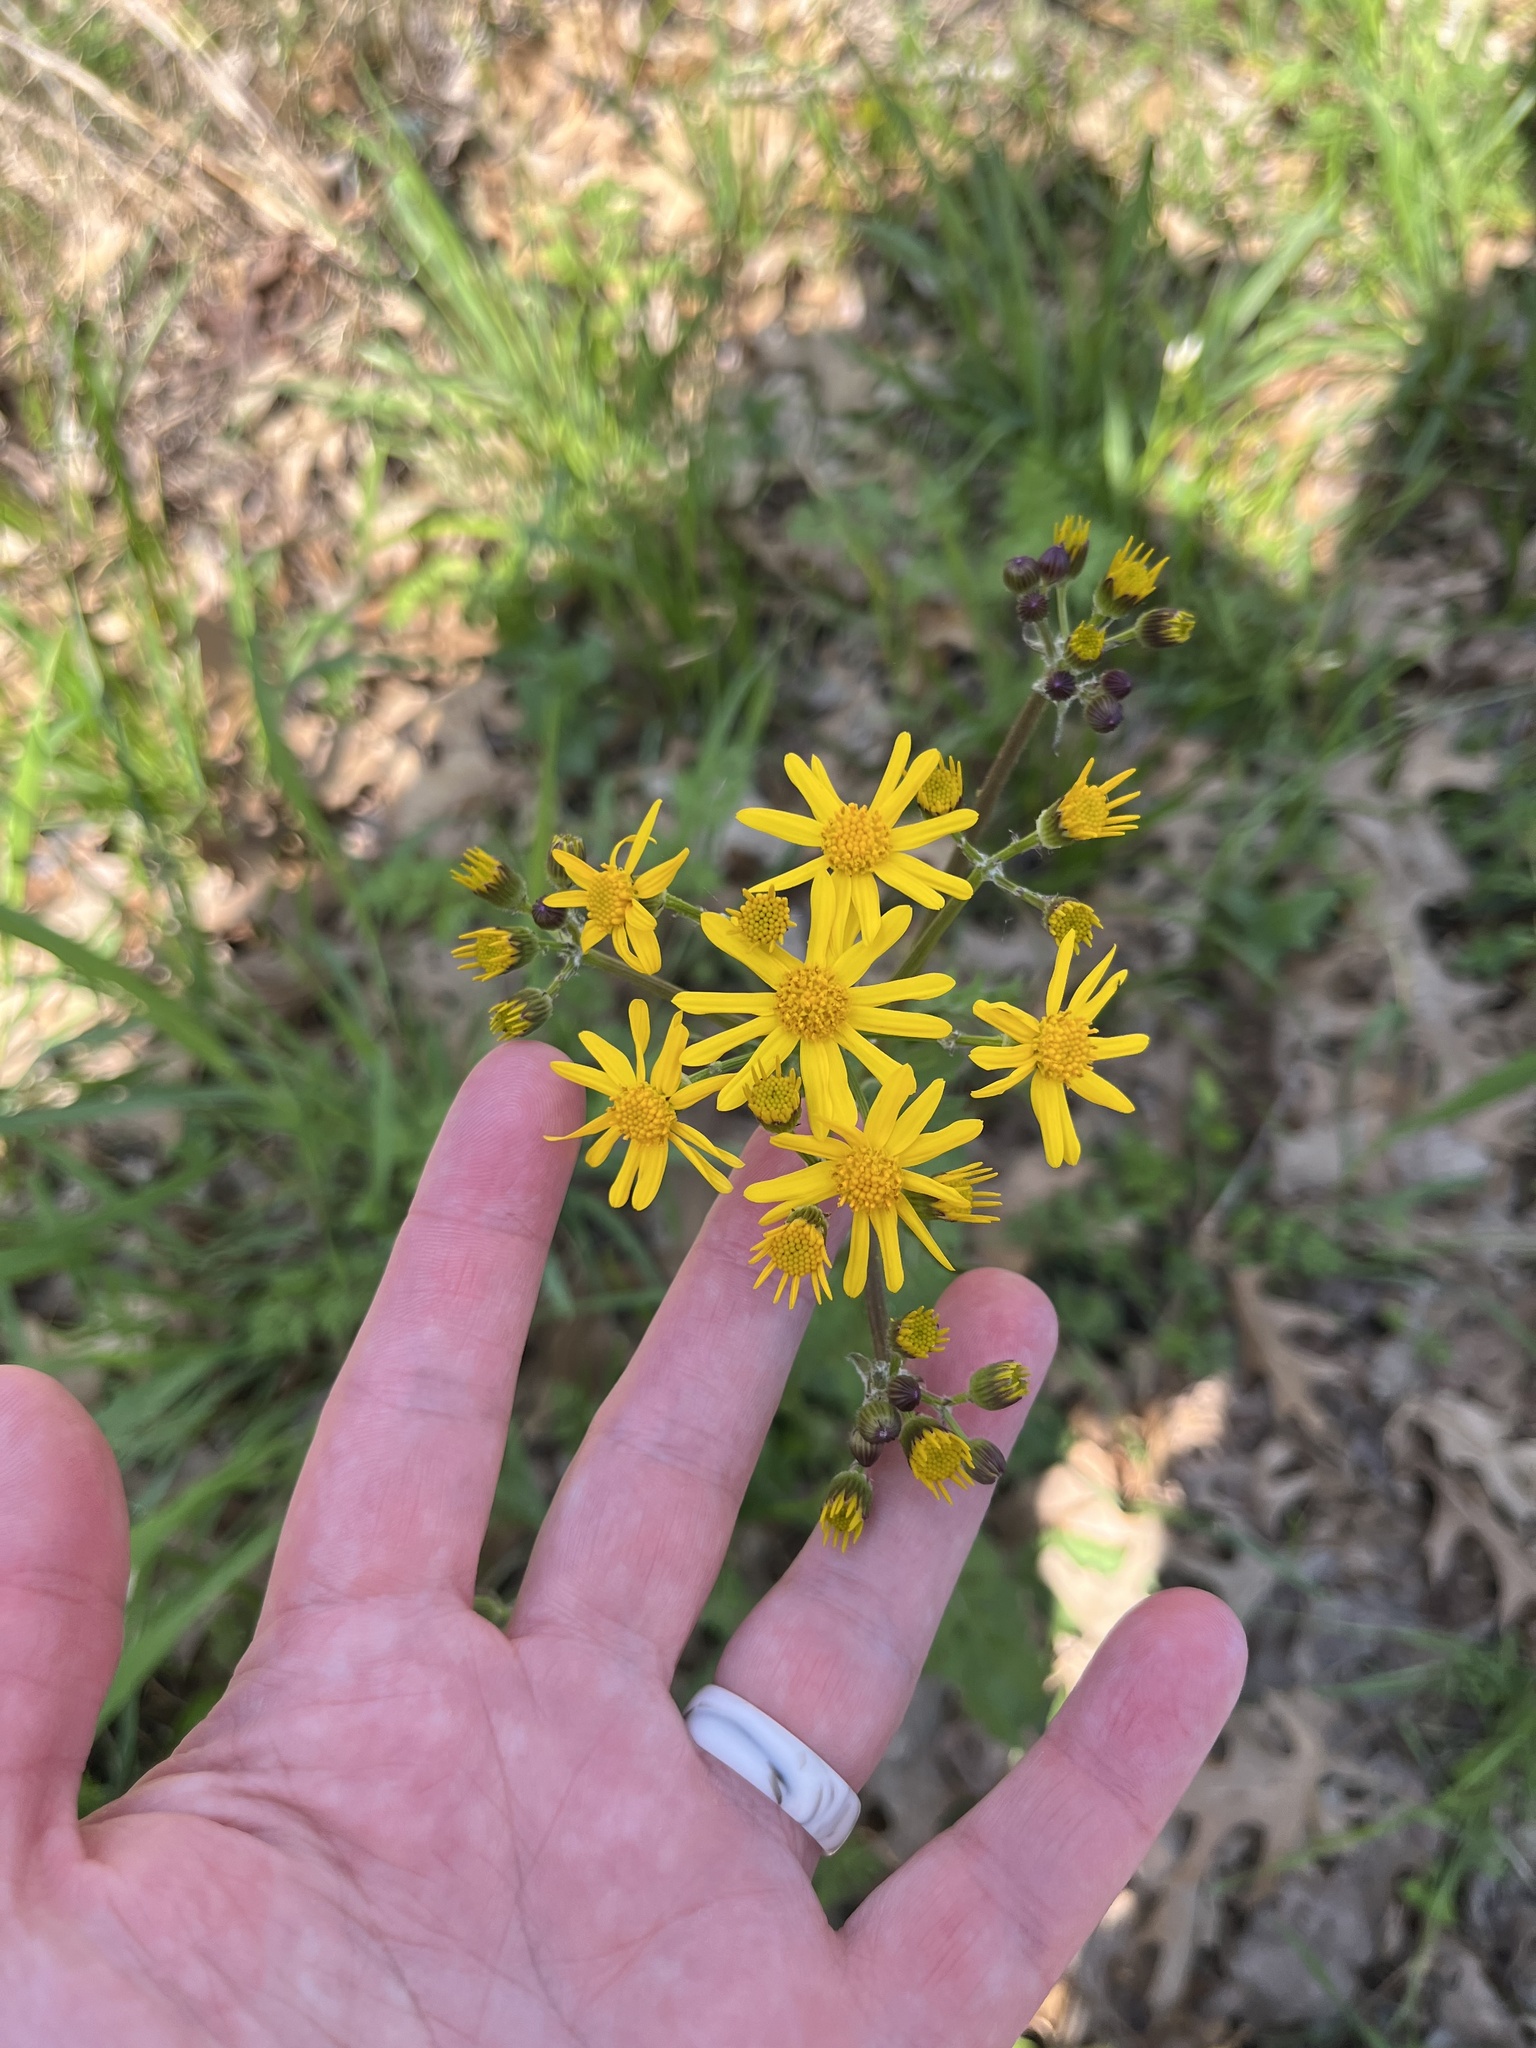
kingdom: Plantae
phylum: Tracheophyta
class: Magnoliopsida
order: Asterales
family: Asteraceae
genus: Packera
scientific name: Packera plattensis
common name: Prairie groundsel
